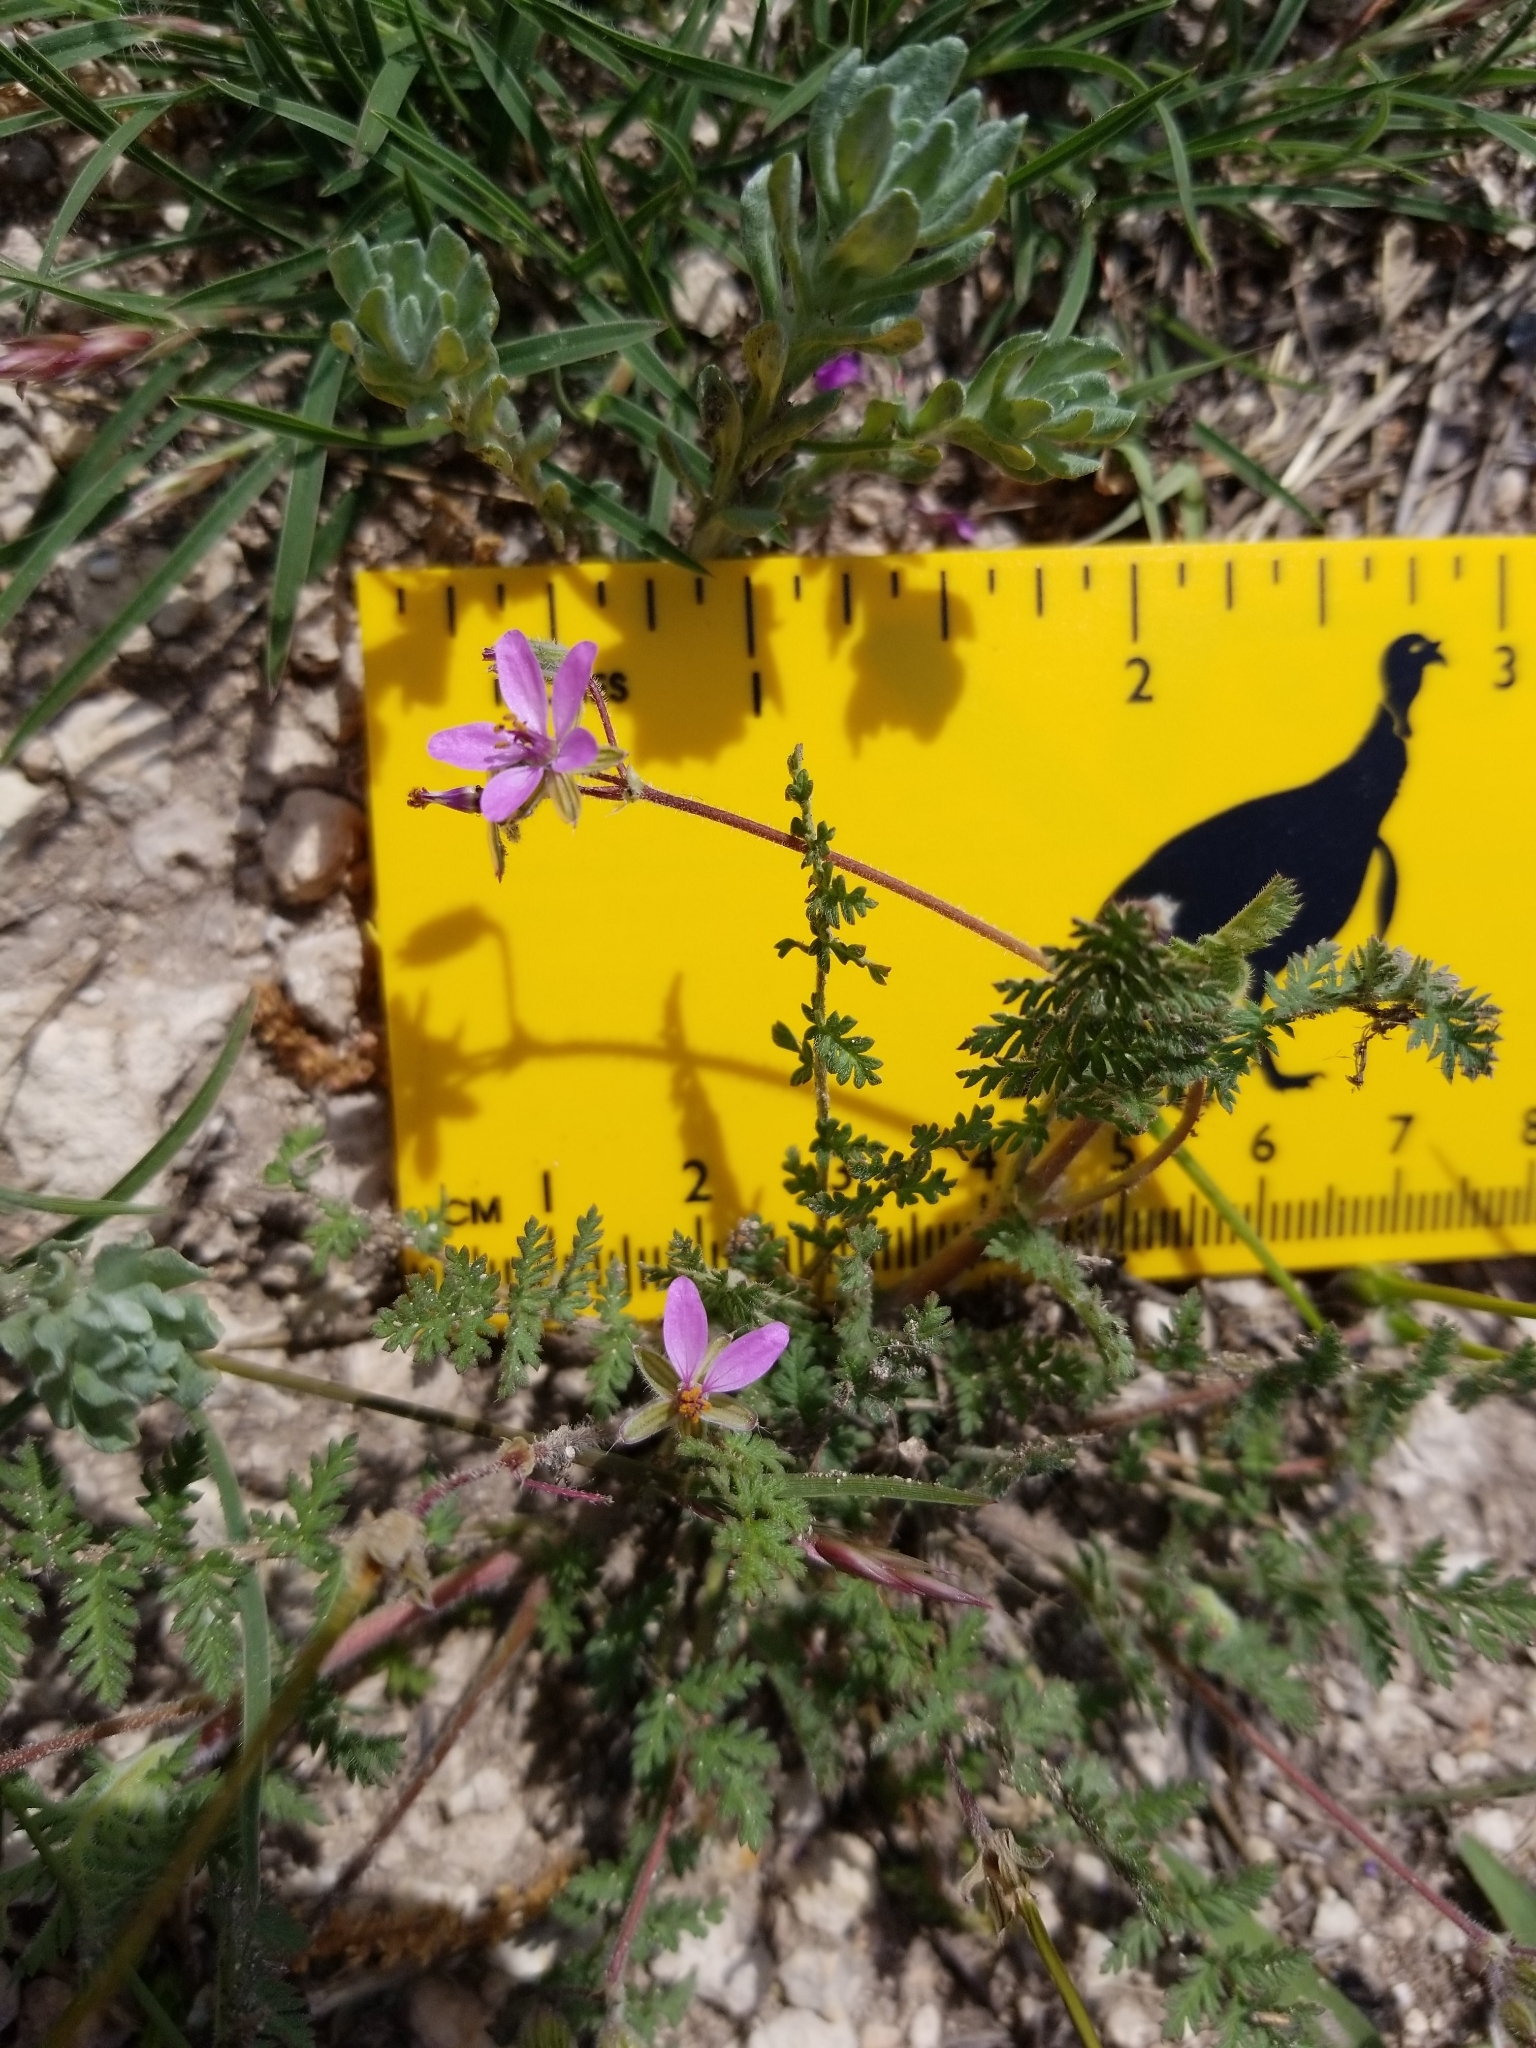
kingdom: Plantae
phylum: Tracheophyta
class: Magnoliopsida
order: Geraniales
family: Geraniaceae
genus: Erodium
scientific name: Erodium cicutarium
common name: Common stork's-bill
